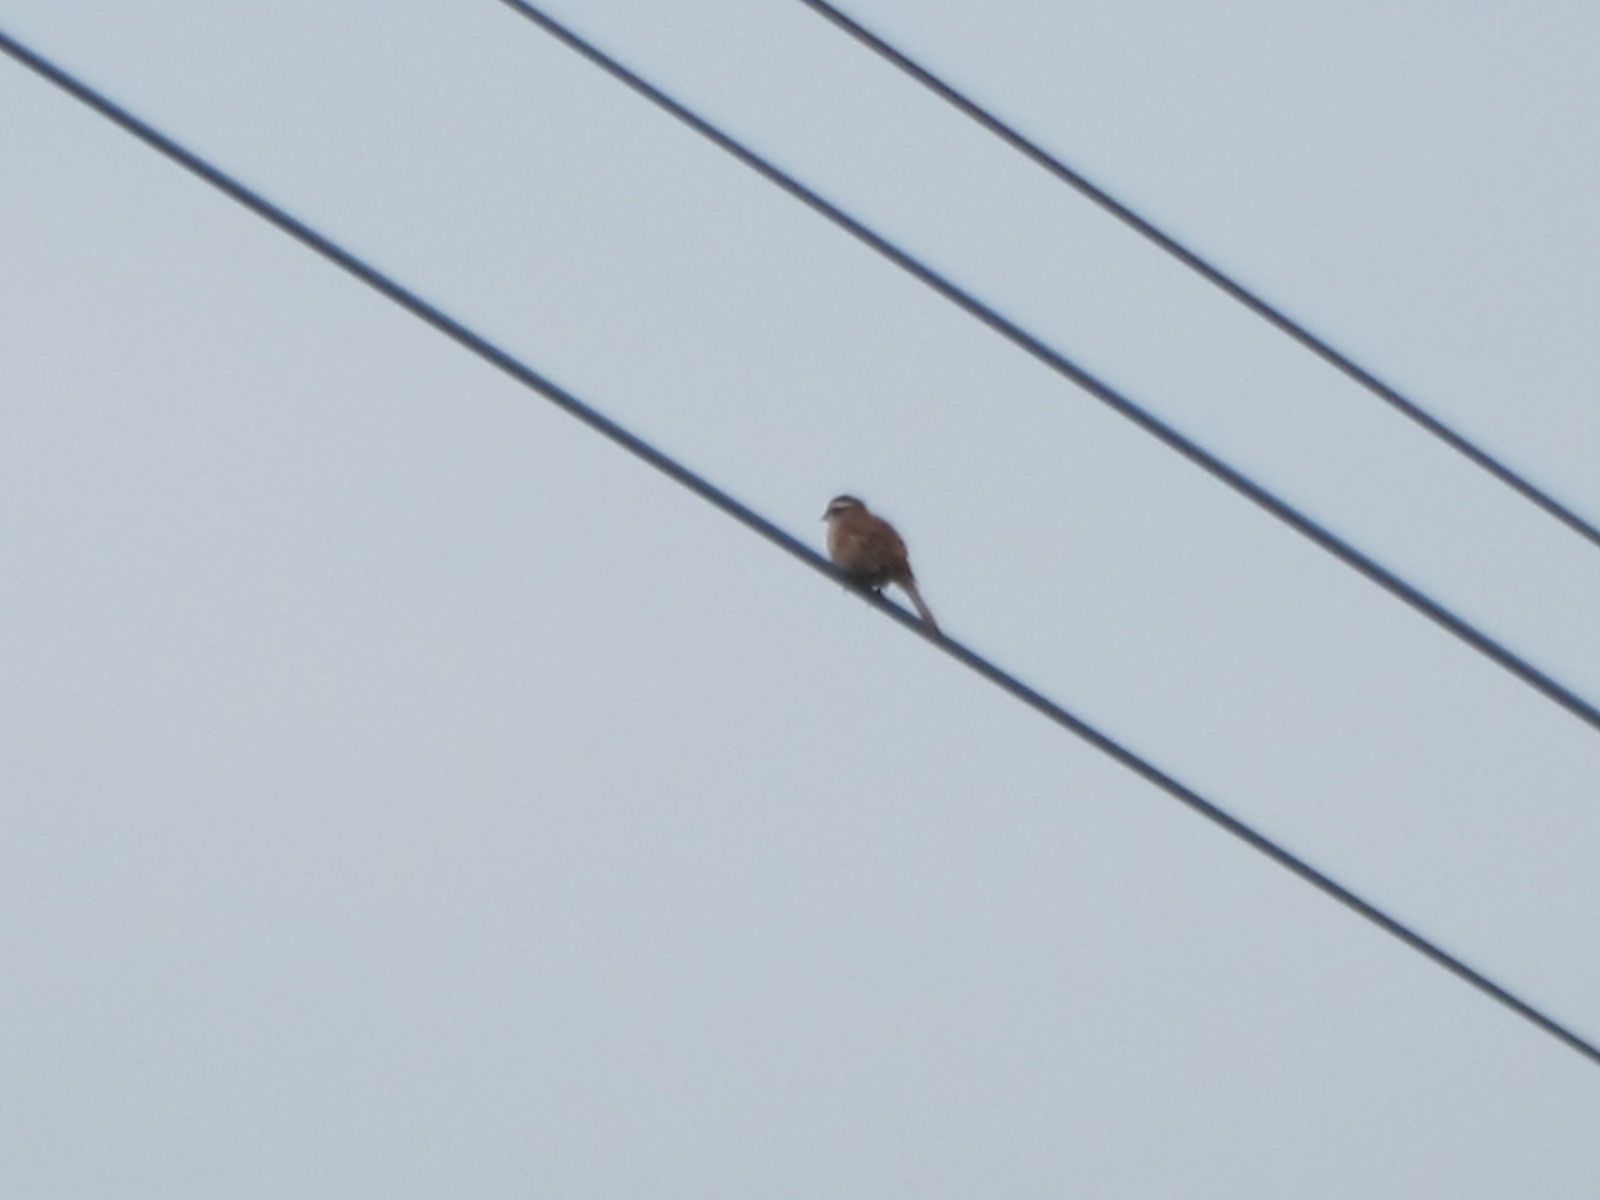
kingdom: Animalia
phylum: Chordata
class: Aves
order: Passeriformes
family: Emberizidae
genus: Emberiza
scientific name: Emberiza cioides
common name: Meadow bunting
